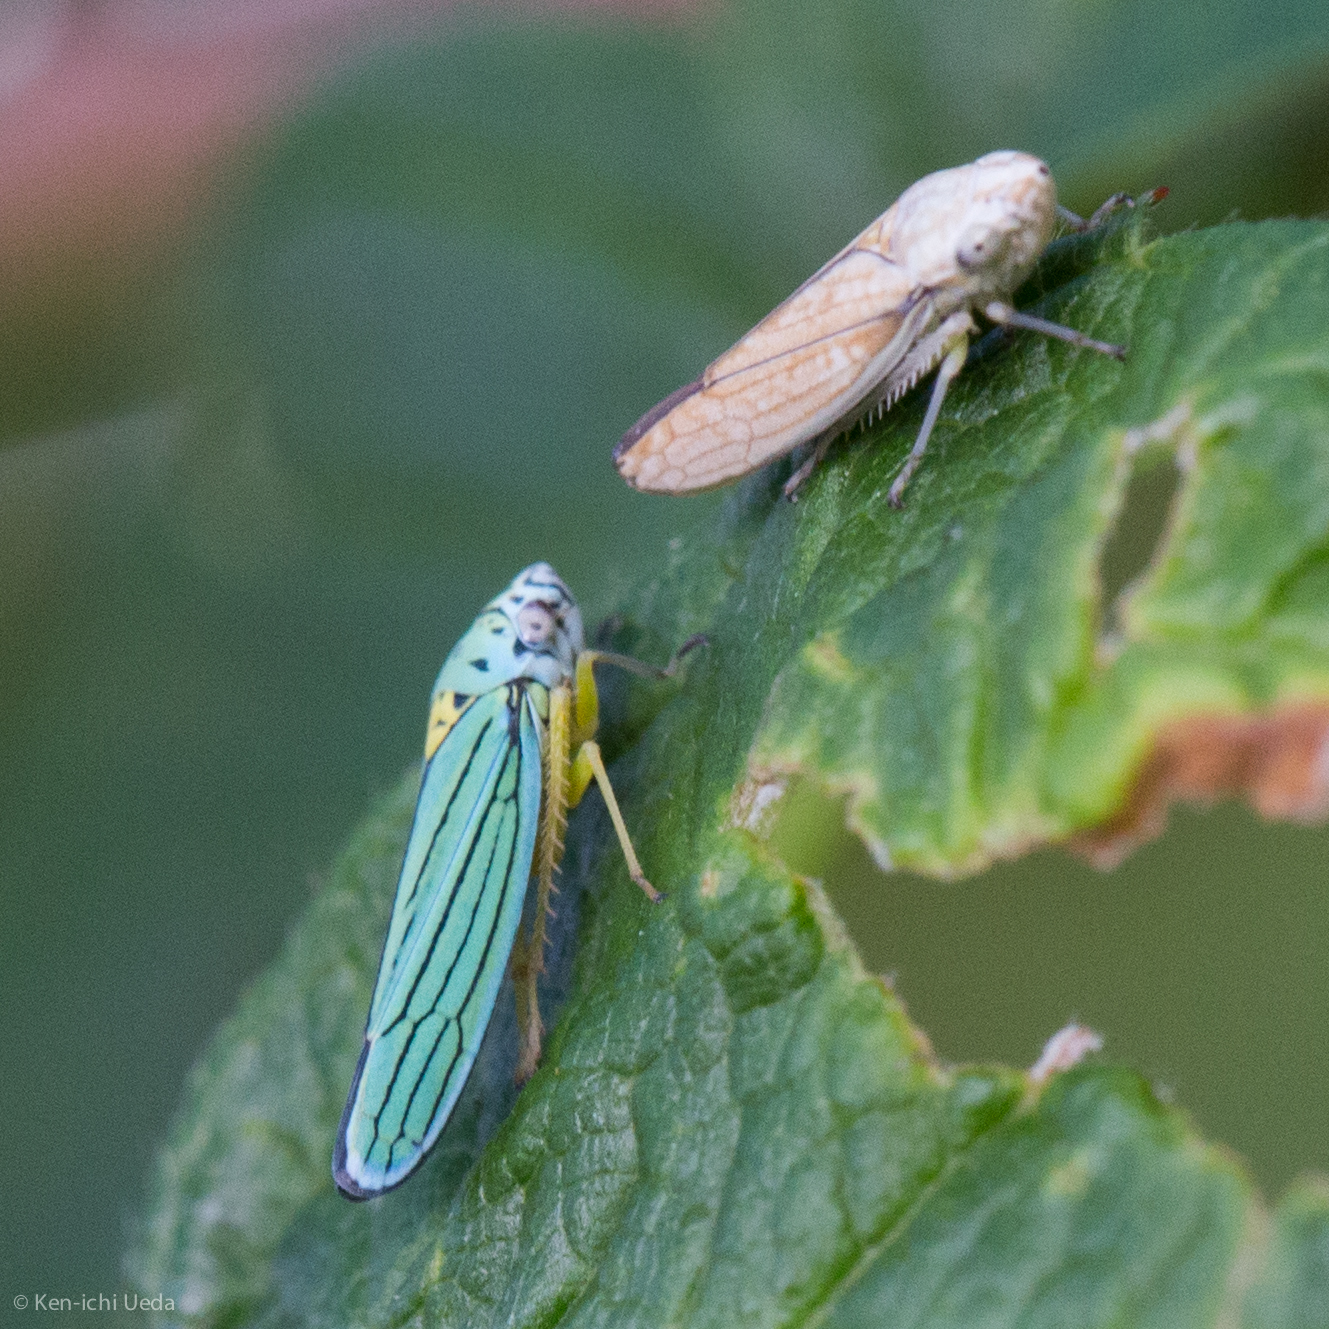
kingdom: Animalia
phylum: Arthropoda
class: Insecta
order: Hemiptera
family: Cicadellidae
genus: Graphocephala
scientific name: Graphocephala atropunctata
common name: Blue-green sharpshooter
